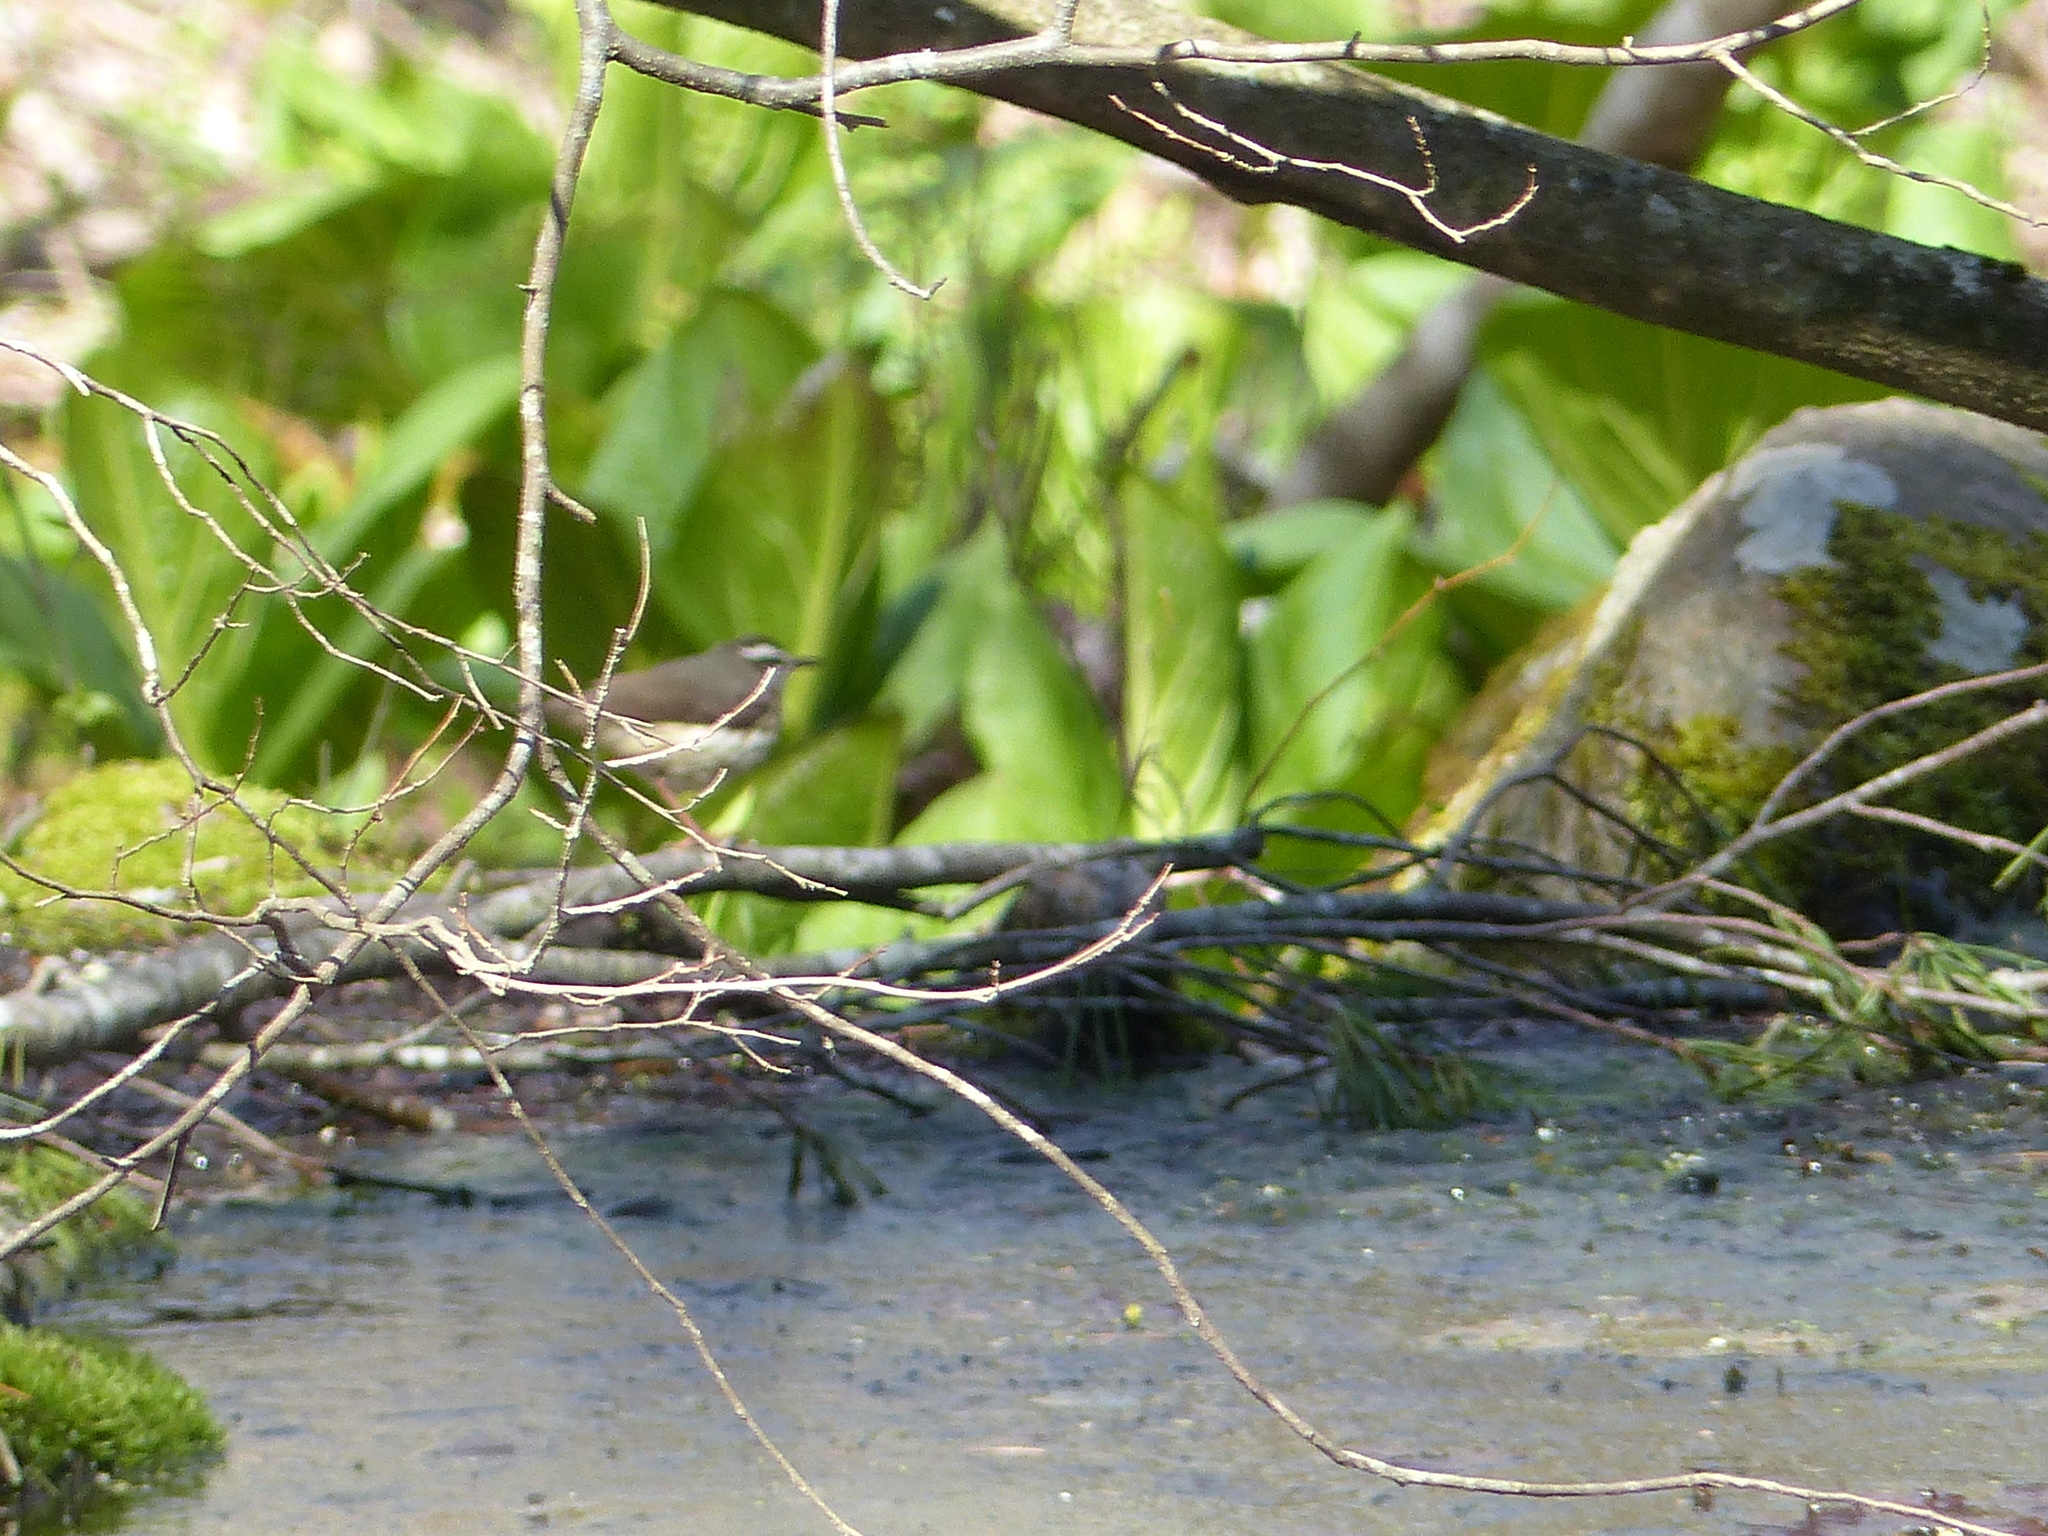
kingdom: Animalia
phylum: Chordata
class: Aves
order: Passeriformes
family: Parulidae
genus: Parkesia
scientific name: Parkesia motacilla
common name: Louisiana waterthrush
